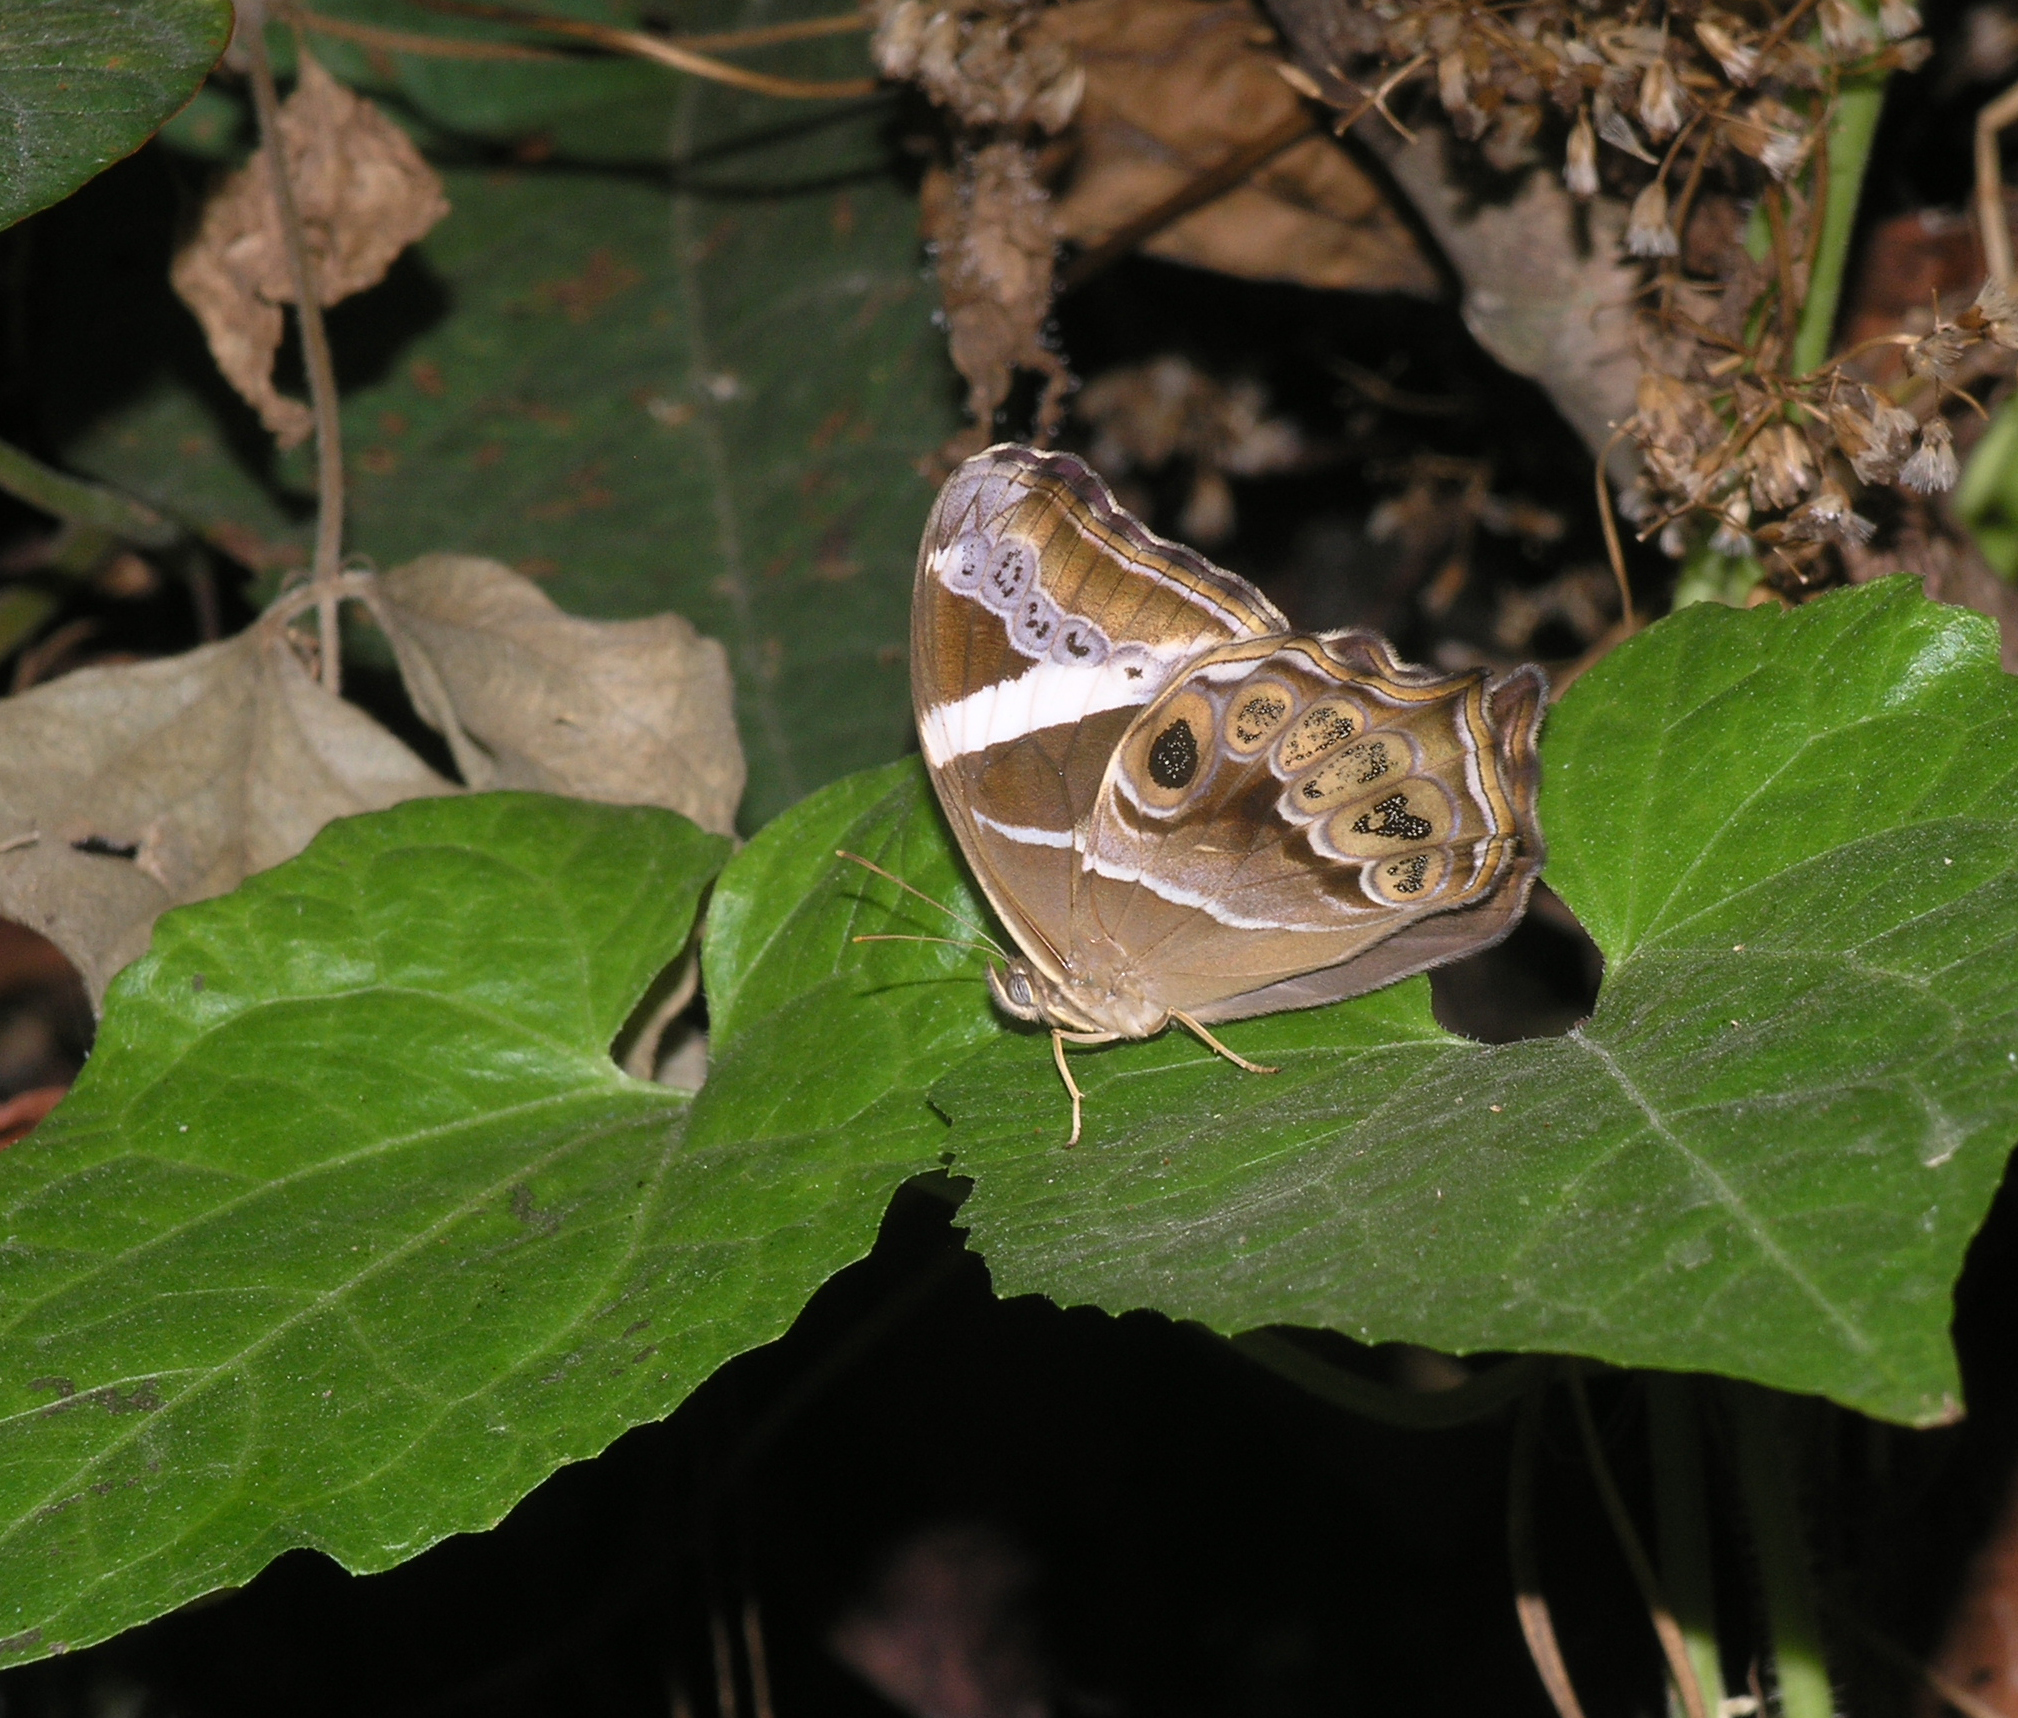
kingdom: Animalia
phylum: Arthropoda
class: Insecta
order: Lepidoptera
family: Nymphalidae
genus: Lethe
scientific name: Lethe europa
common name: Bamboo treebrown
